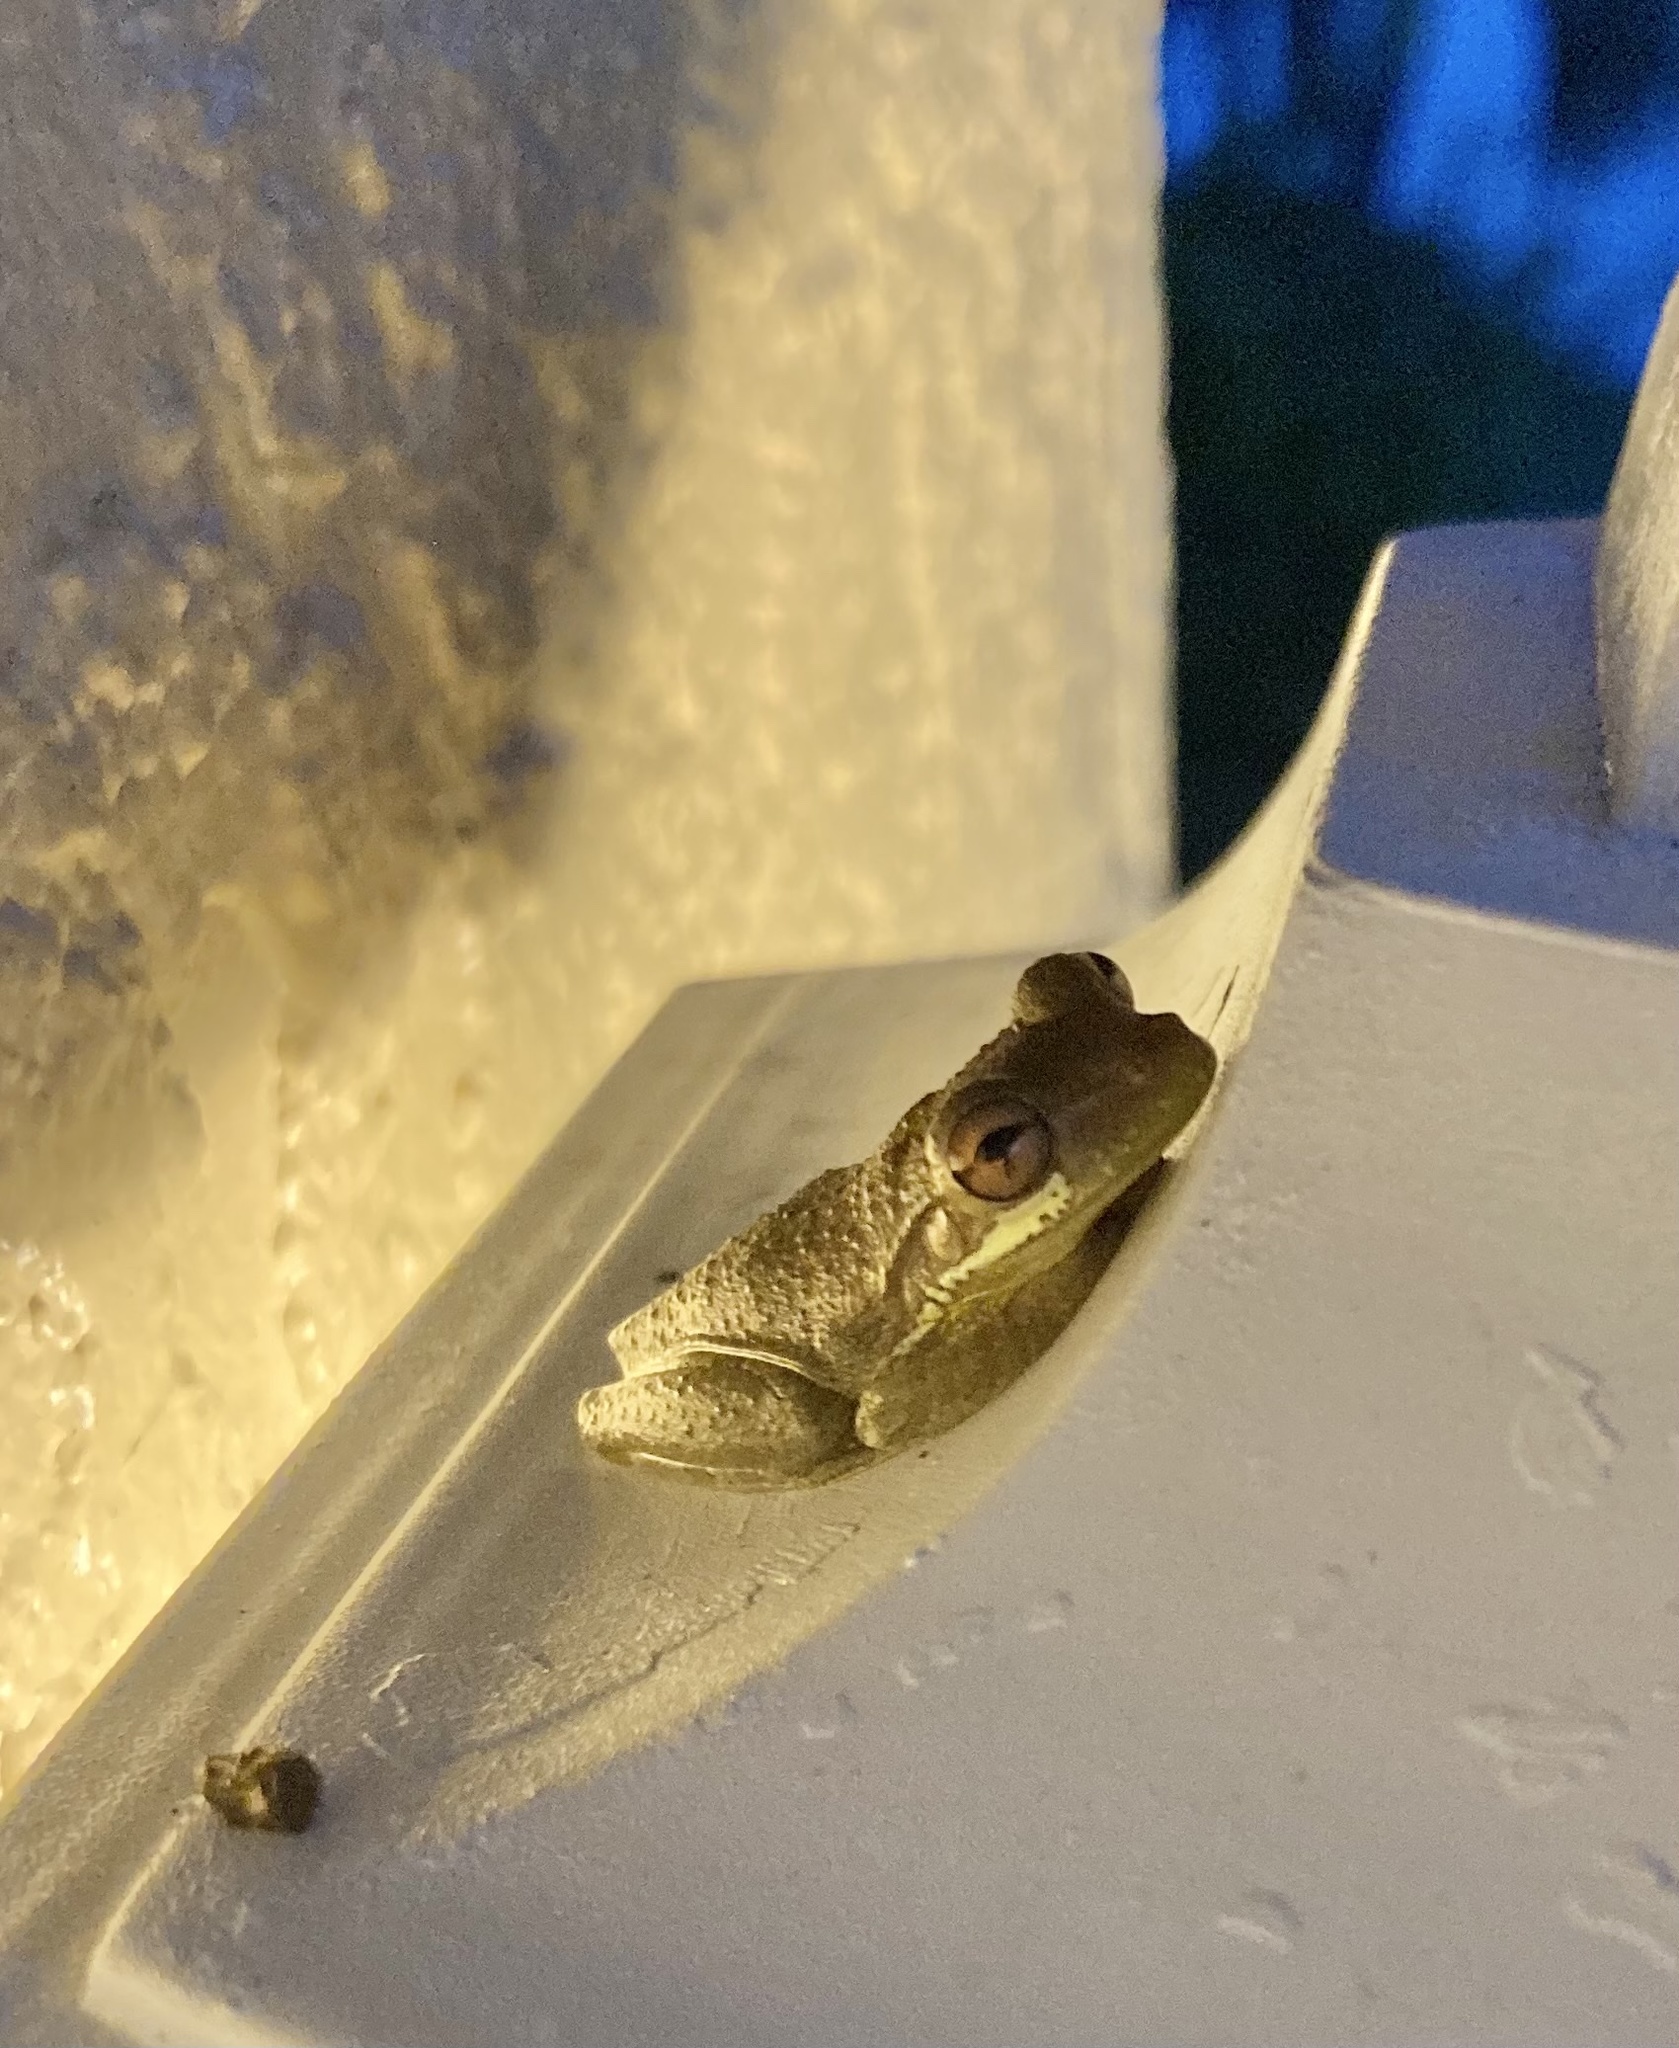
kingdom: Animalia
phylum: Chordata
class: Amphibia
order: Anura
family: Hylidae
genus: Osteopilus
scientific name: Osteopilus septentrionalis
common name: Cuban treefrog
